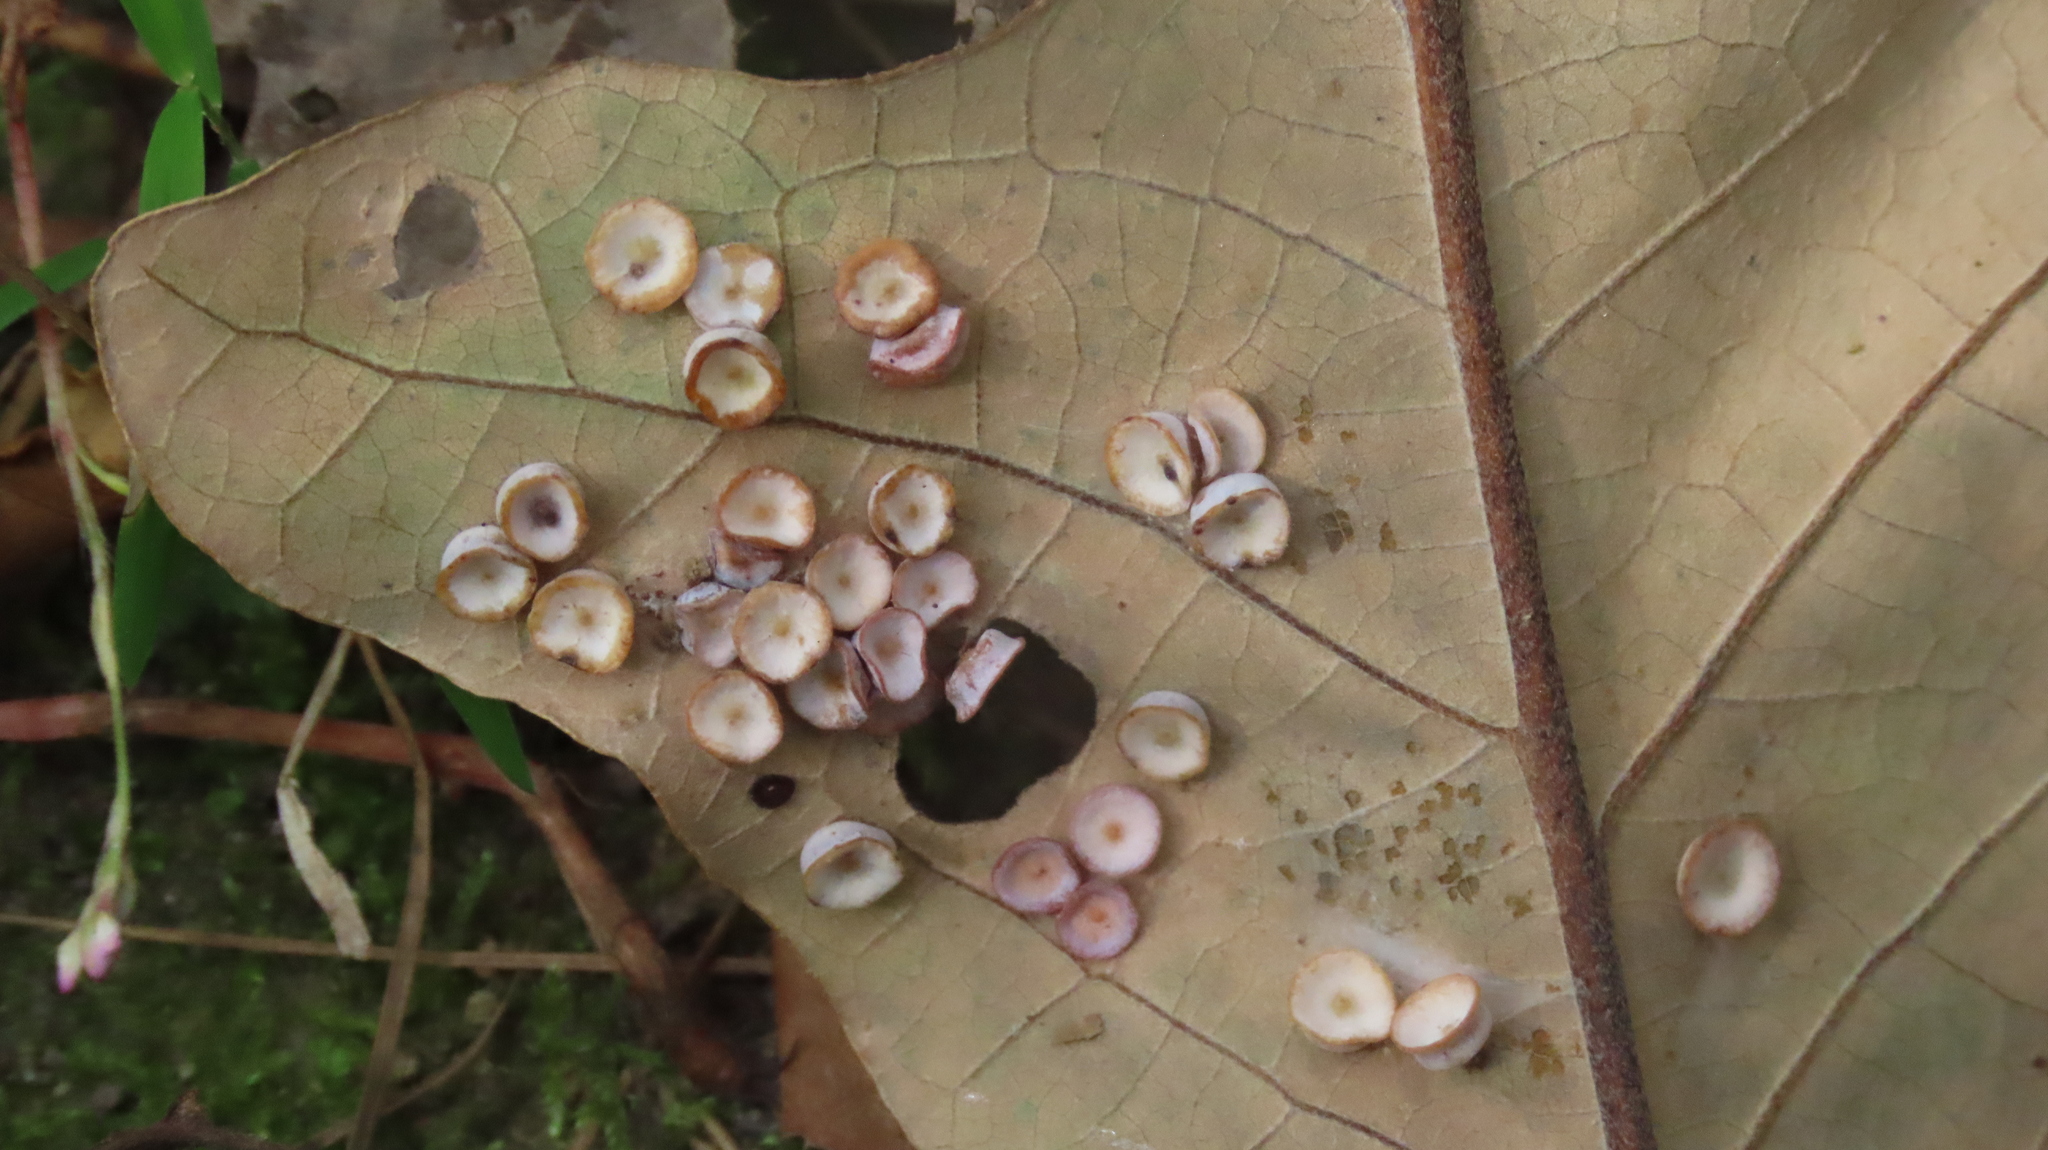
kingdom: Animalia
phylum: Arthropoda
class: Insecta
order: Hymenoptera
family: Cynipidae
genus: Phylloteras
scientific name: Phylloteras poculum
